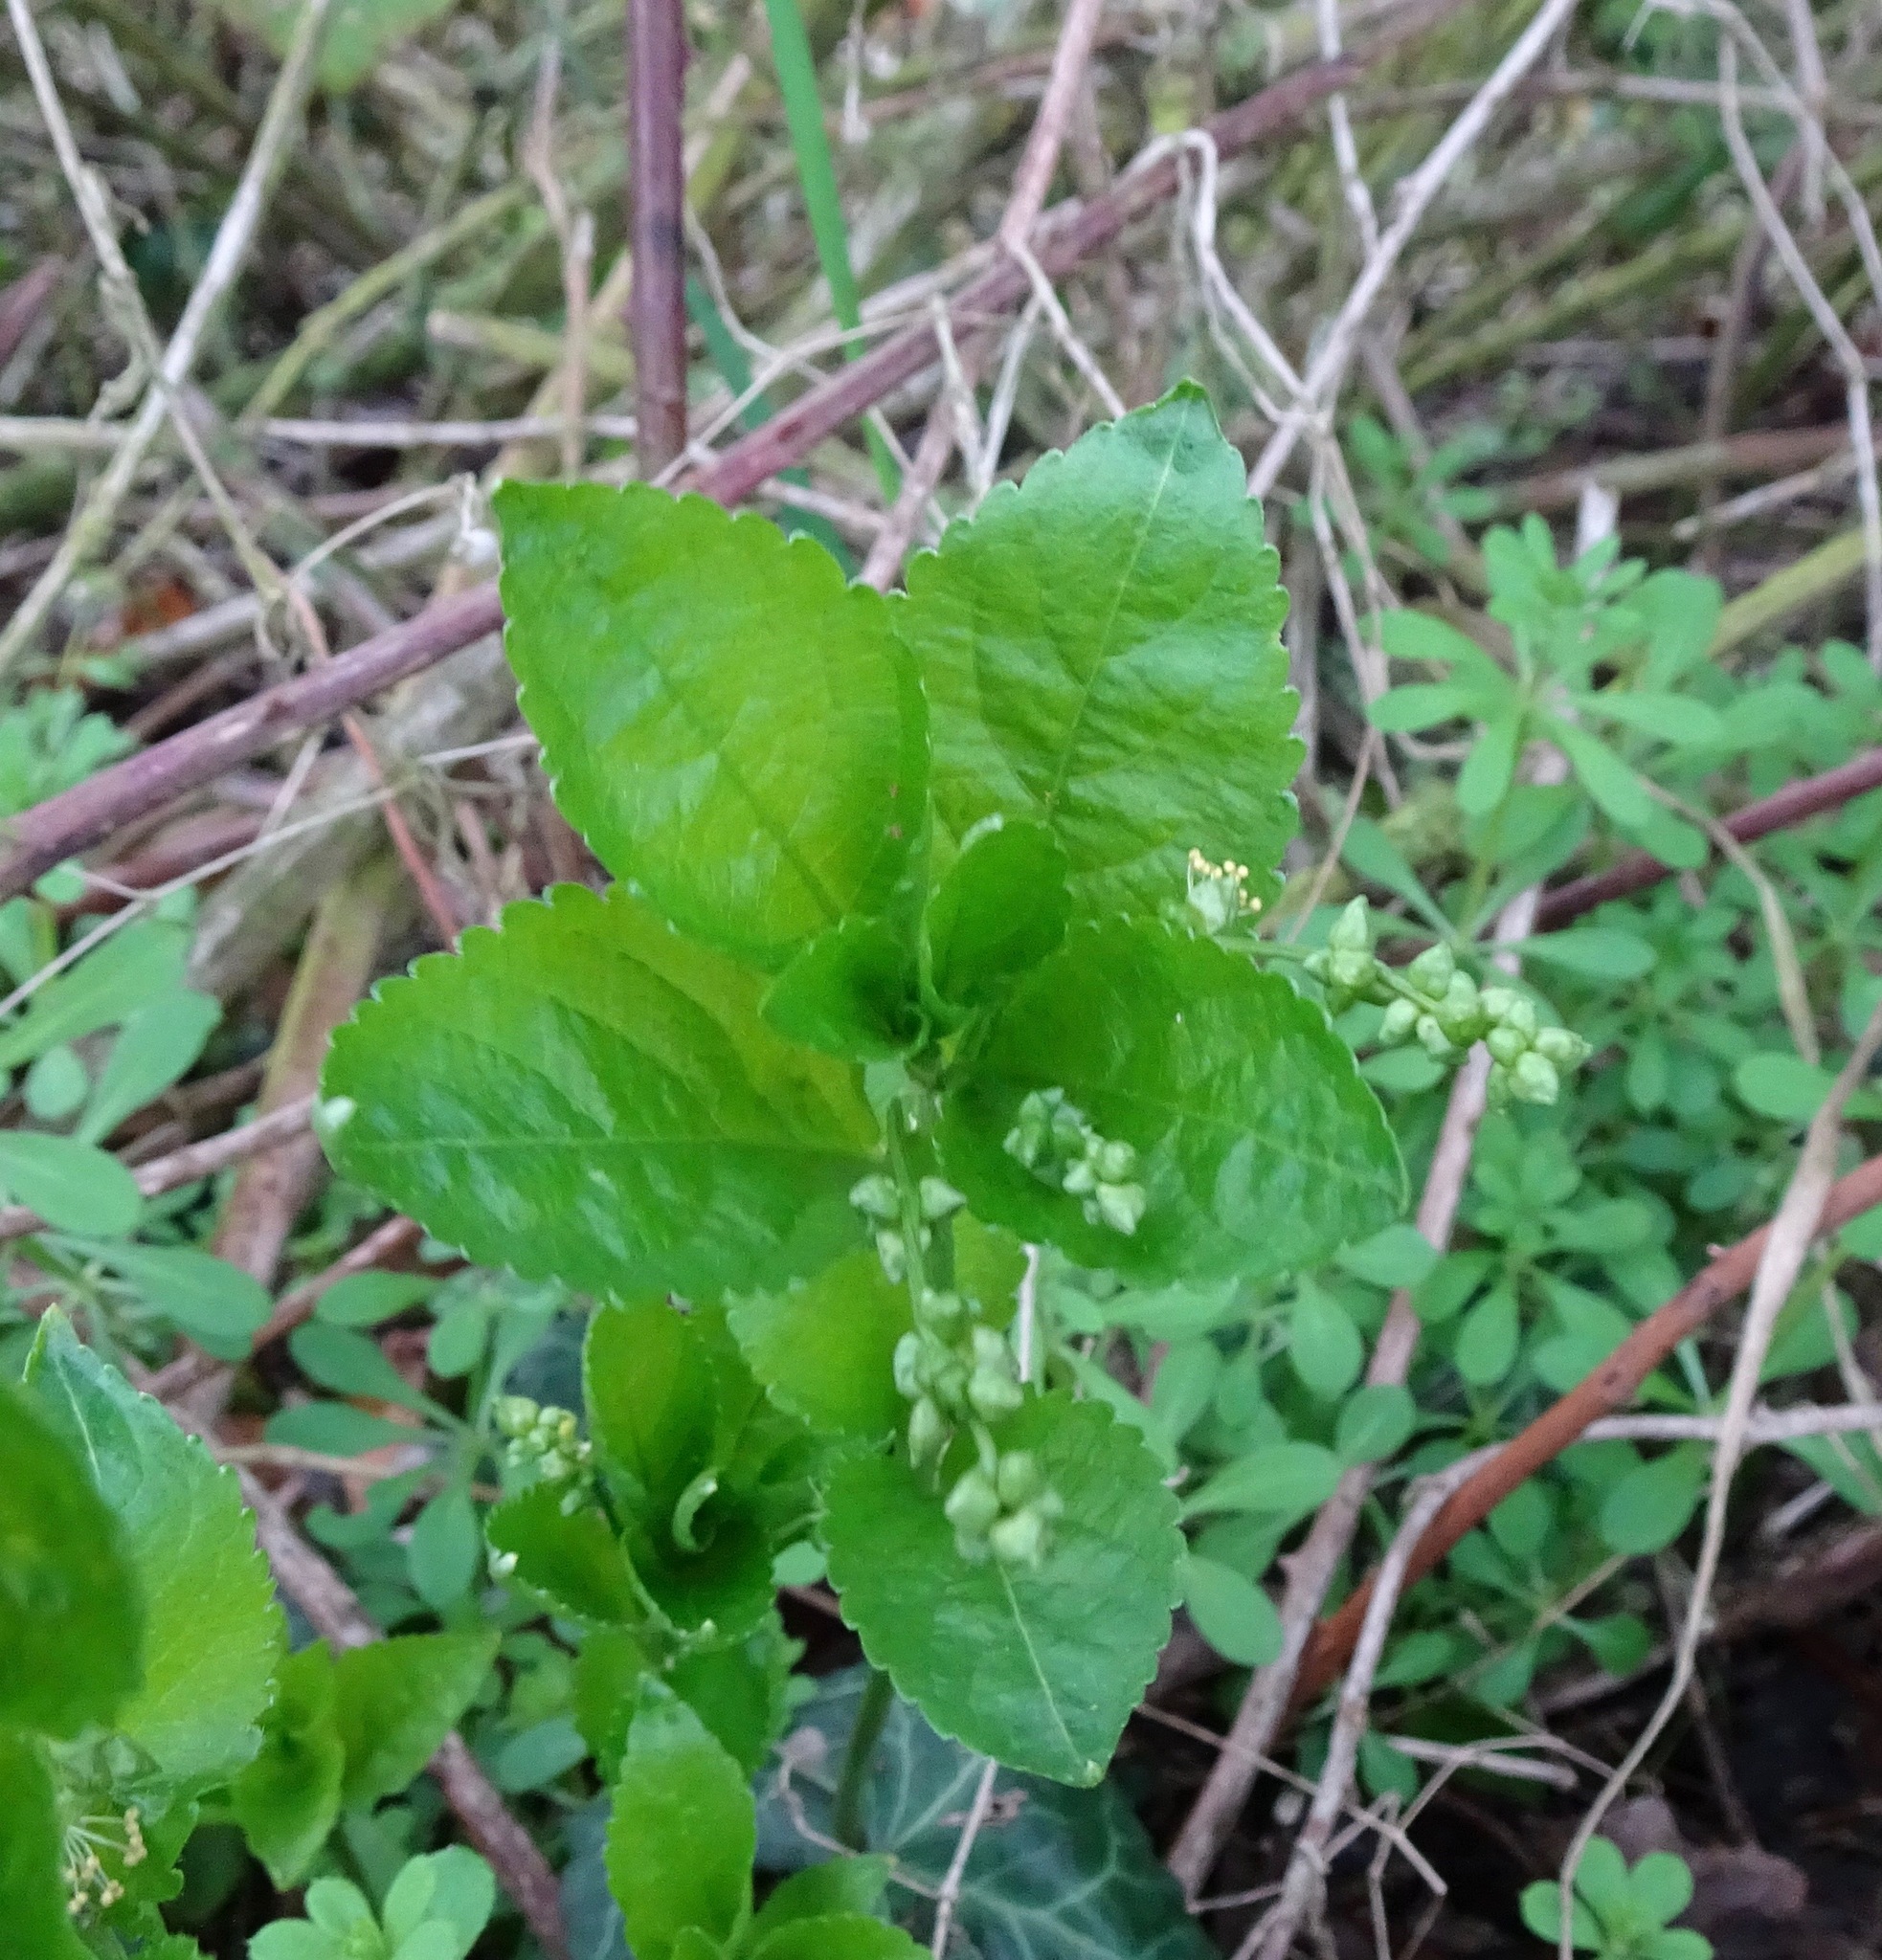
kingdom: Plantae
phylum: Tracheophyta
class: Magnoliopsida
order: Malpighiales
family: Euphorbiaceae
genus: Mercurialis
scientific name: Mercurialis perennis
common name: Dog mercury
